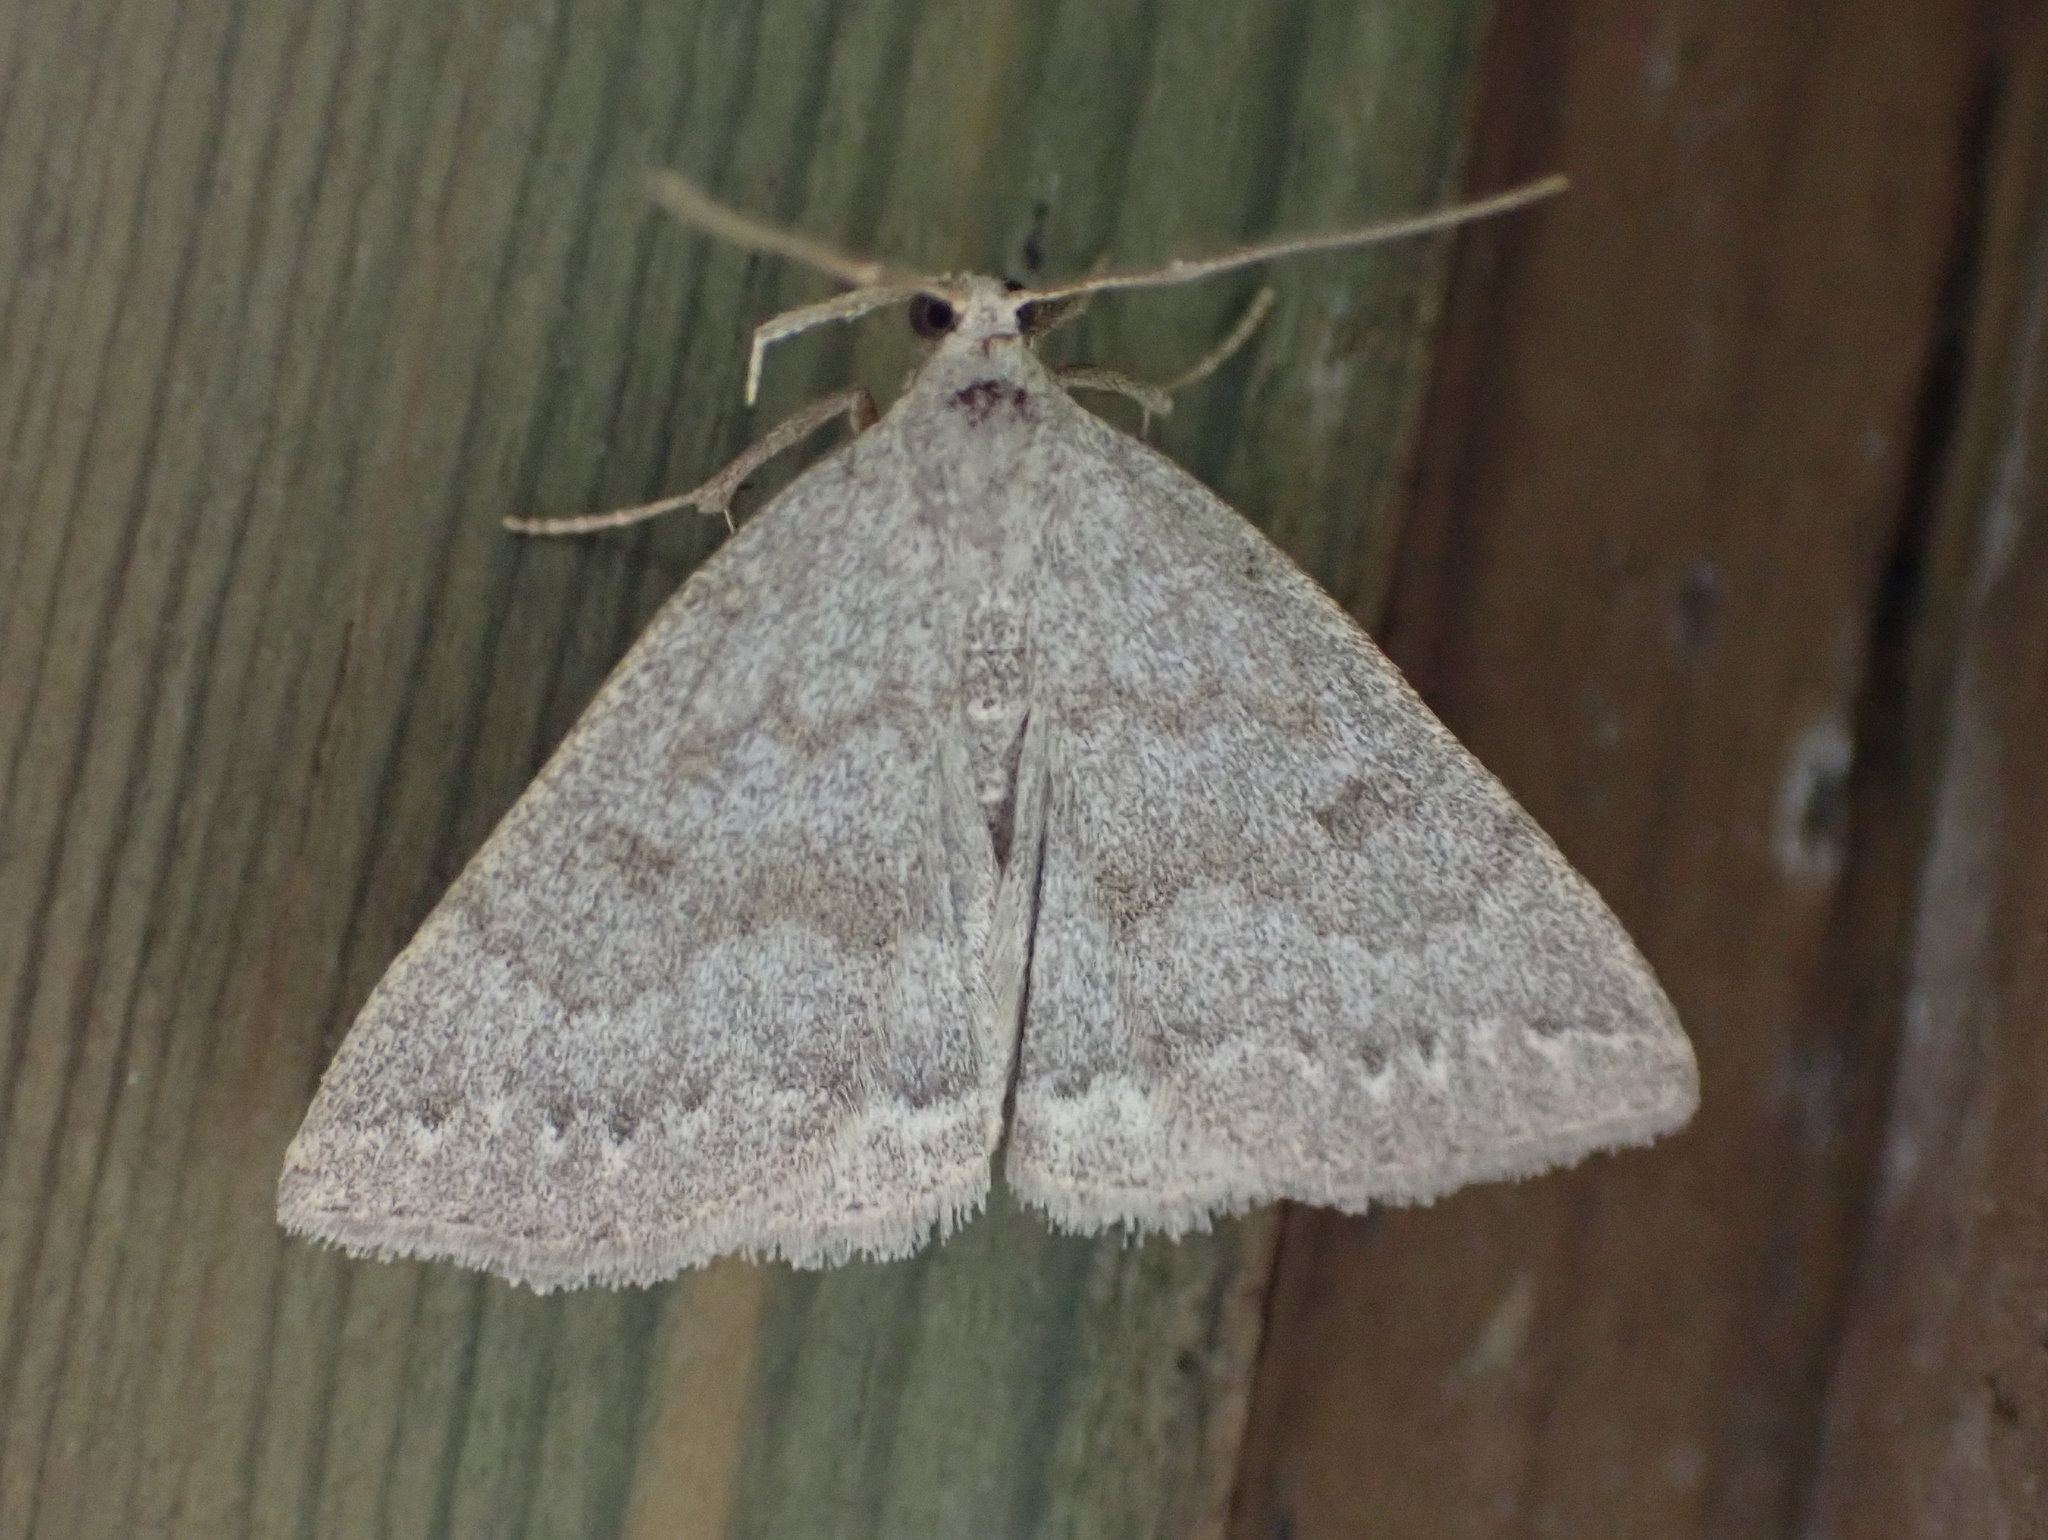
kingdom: Animalia
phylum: Arthropoda
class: Insecta
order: Lepidoptera
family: Erebidae
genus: Macrochilo
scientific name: Macrochilo morbidalis
